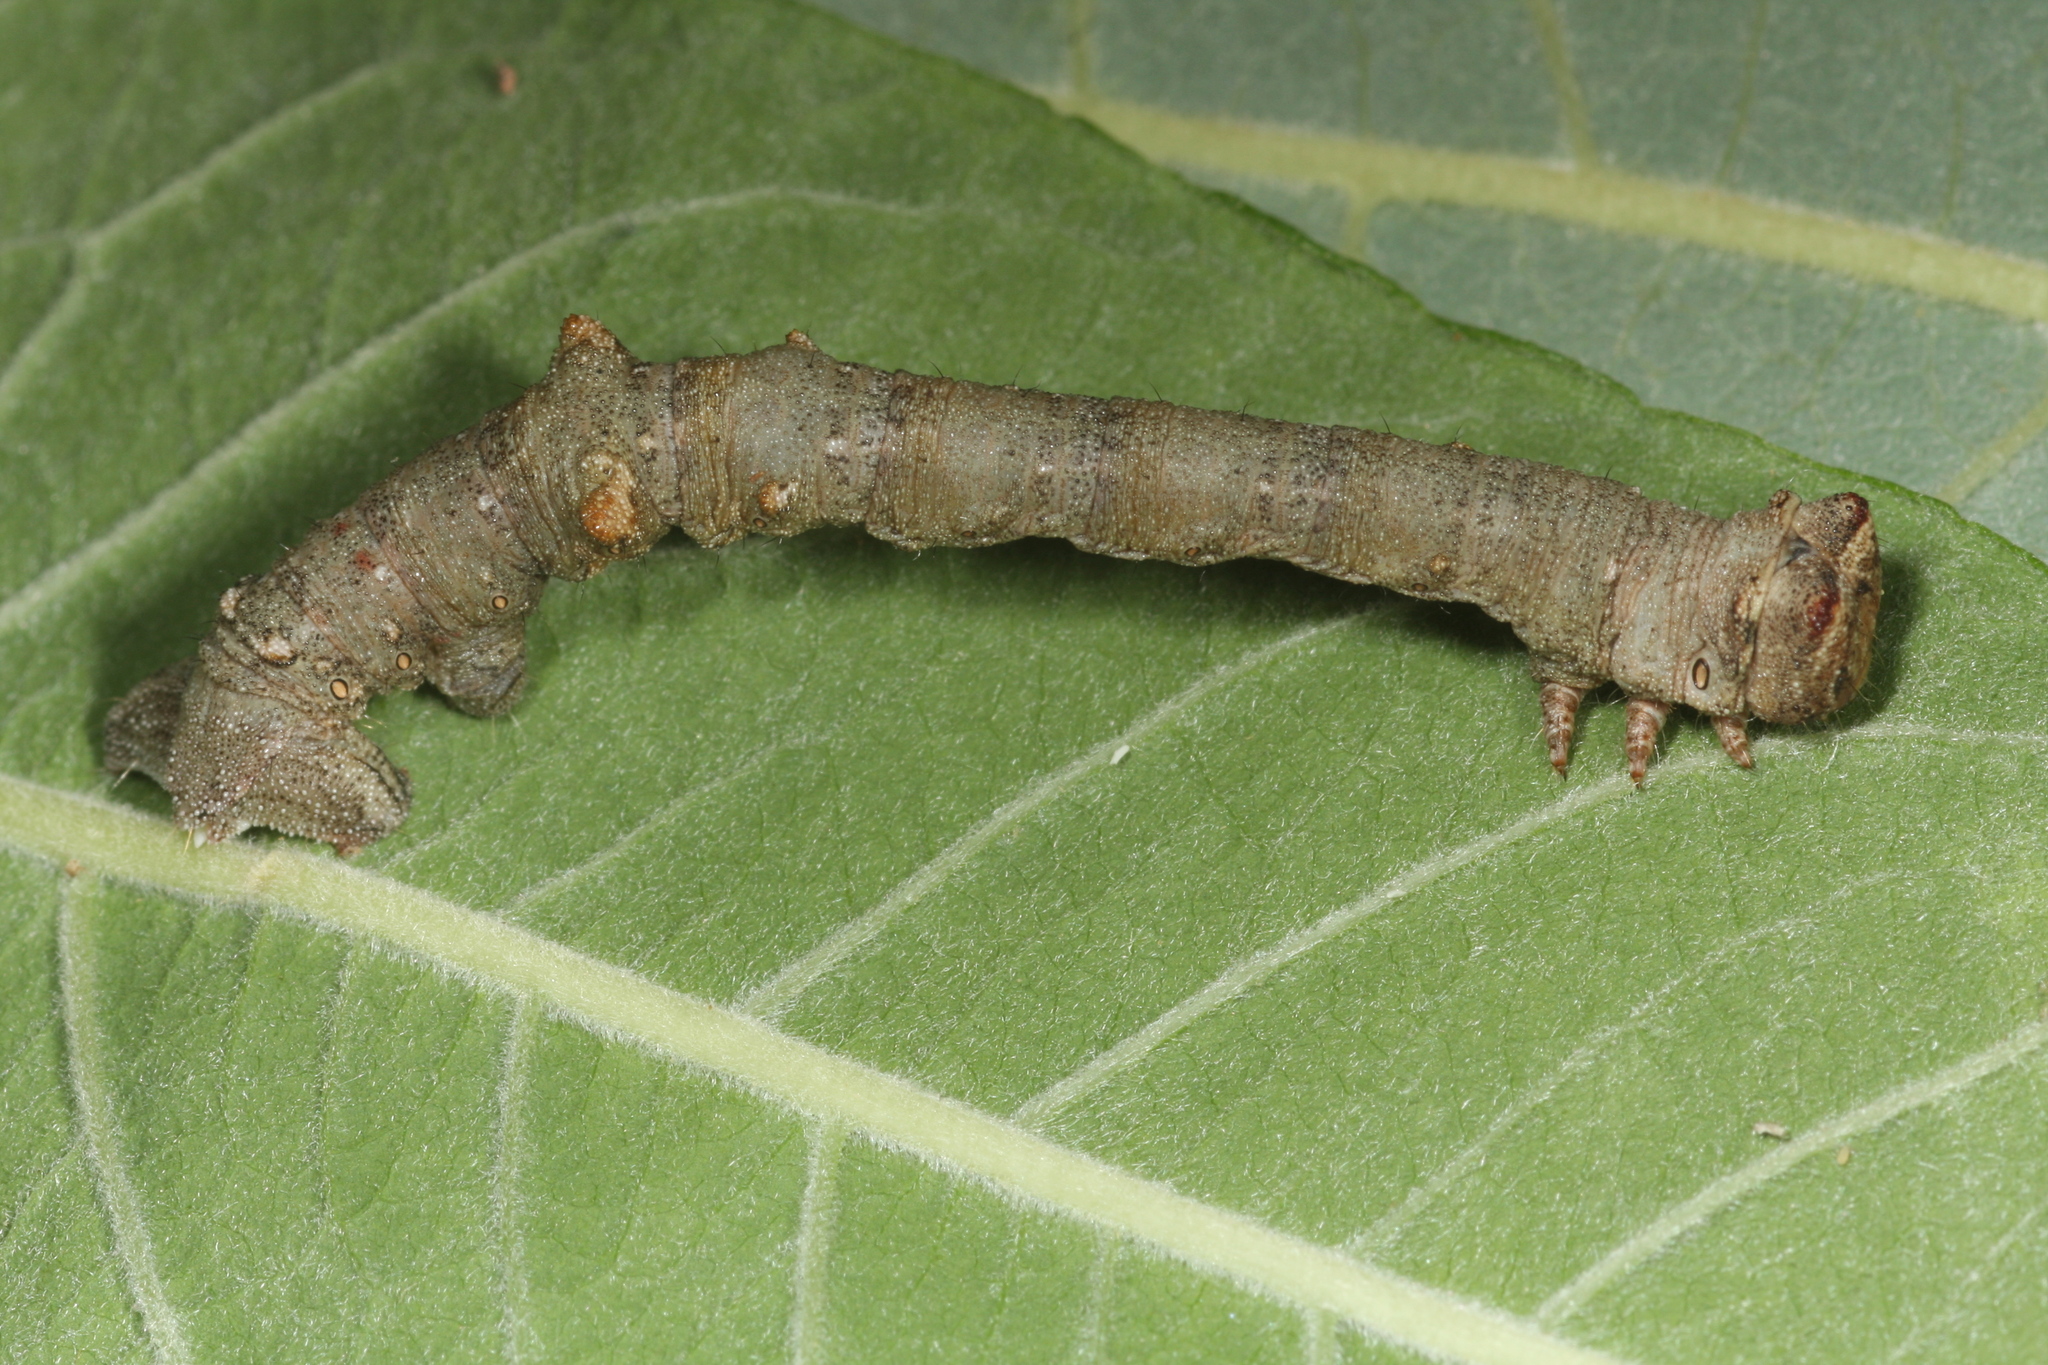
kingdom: Animalia
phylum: Arthropoda
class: Insecta
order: Lepidoptera
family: Geometridae
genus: Biston
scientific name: Biston strataria
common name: Oak beauty
